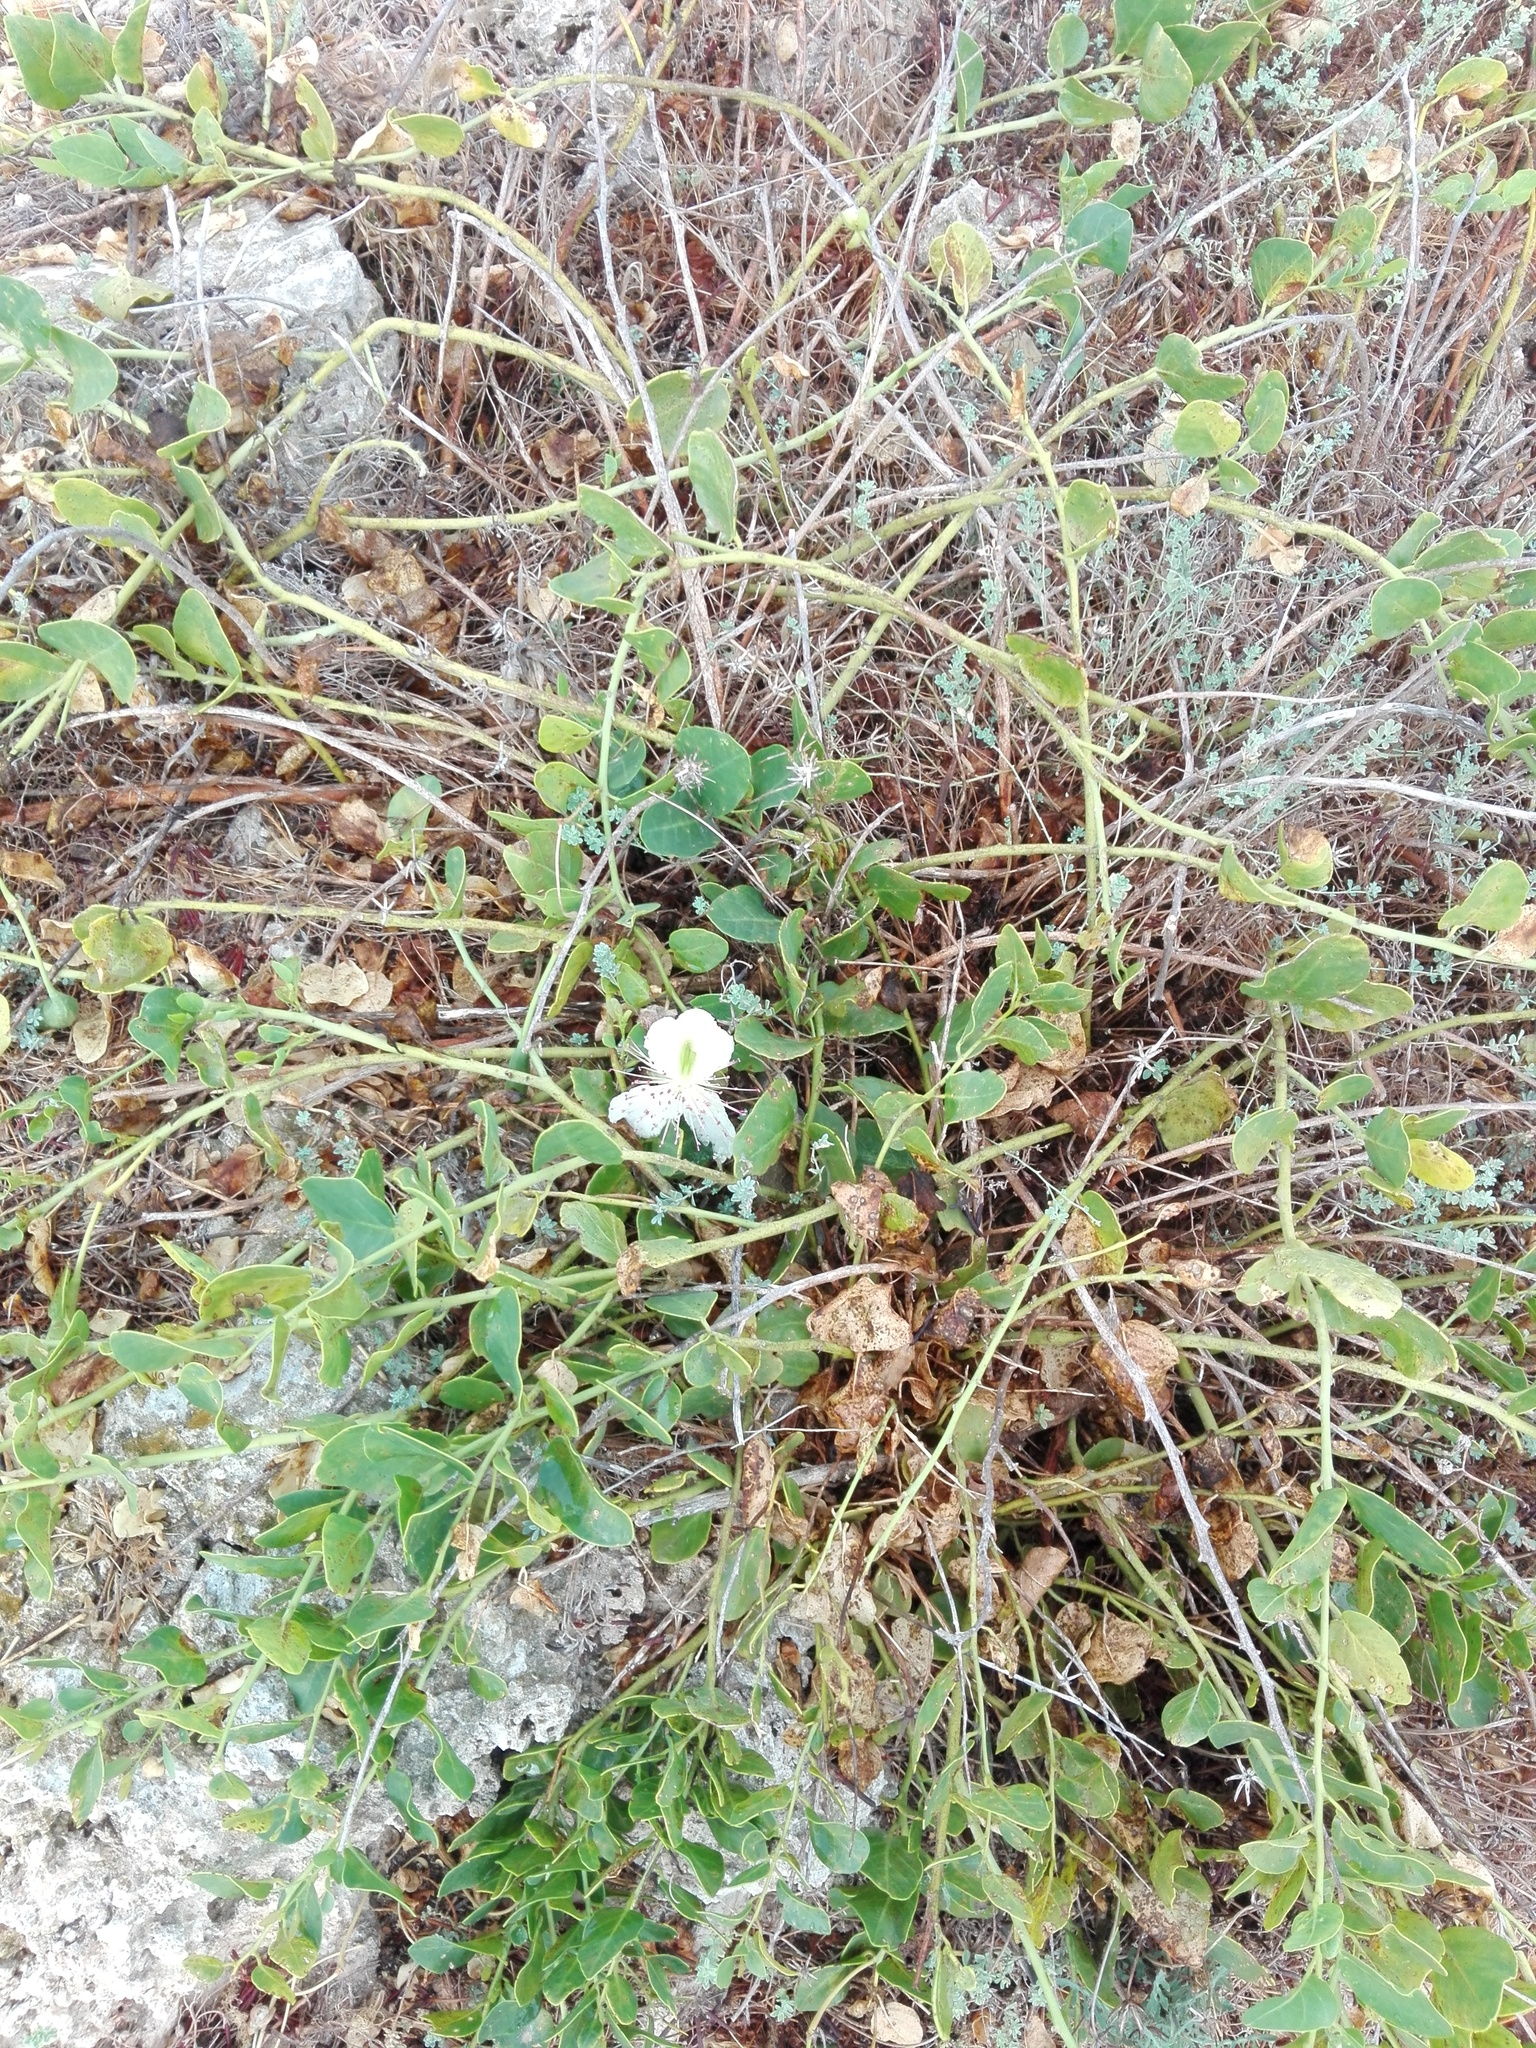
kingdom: Plantae
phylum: Tracheophyta
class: Magnoliopsida
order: Brassicales
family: Capparaceae
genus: Capparis
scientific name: Capparis spinosa
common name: Caper
